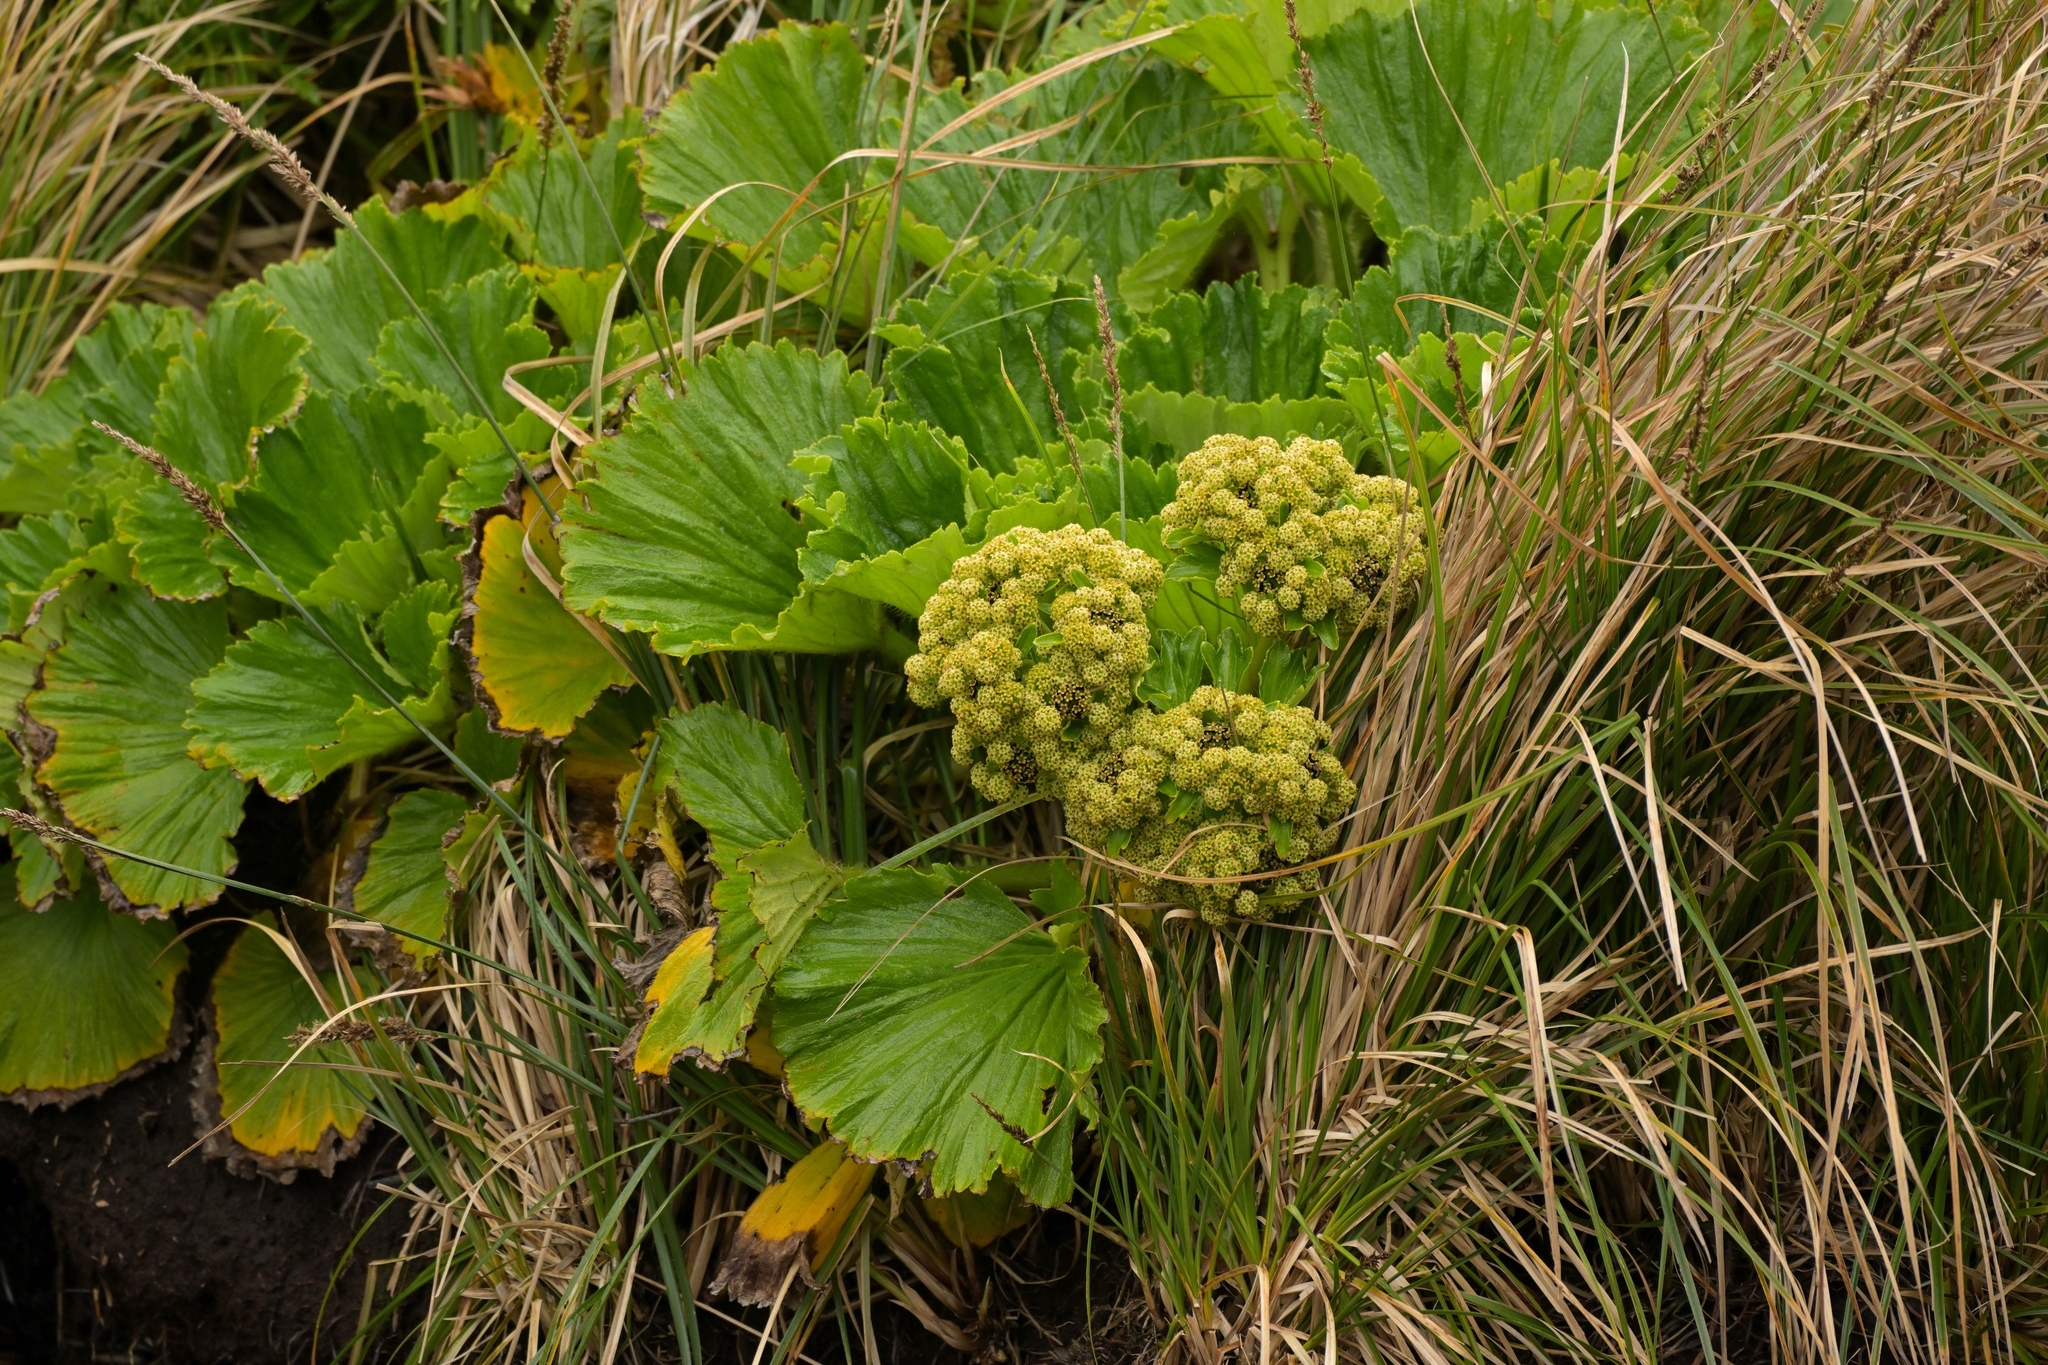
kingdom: Plantae
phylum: Tracheophyta
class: Magnoliopsida
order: Apiales
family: Apiaceae
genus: Azorella
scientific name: Azorella polaris
